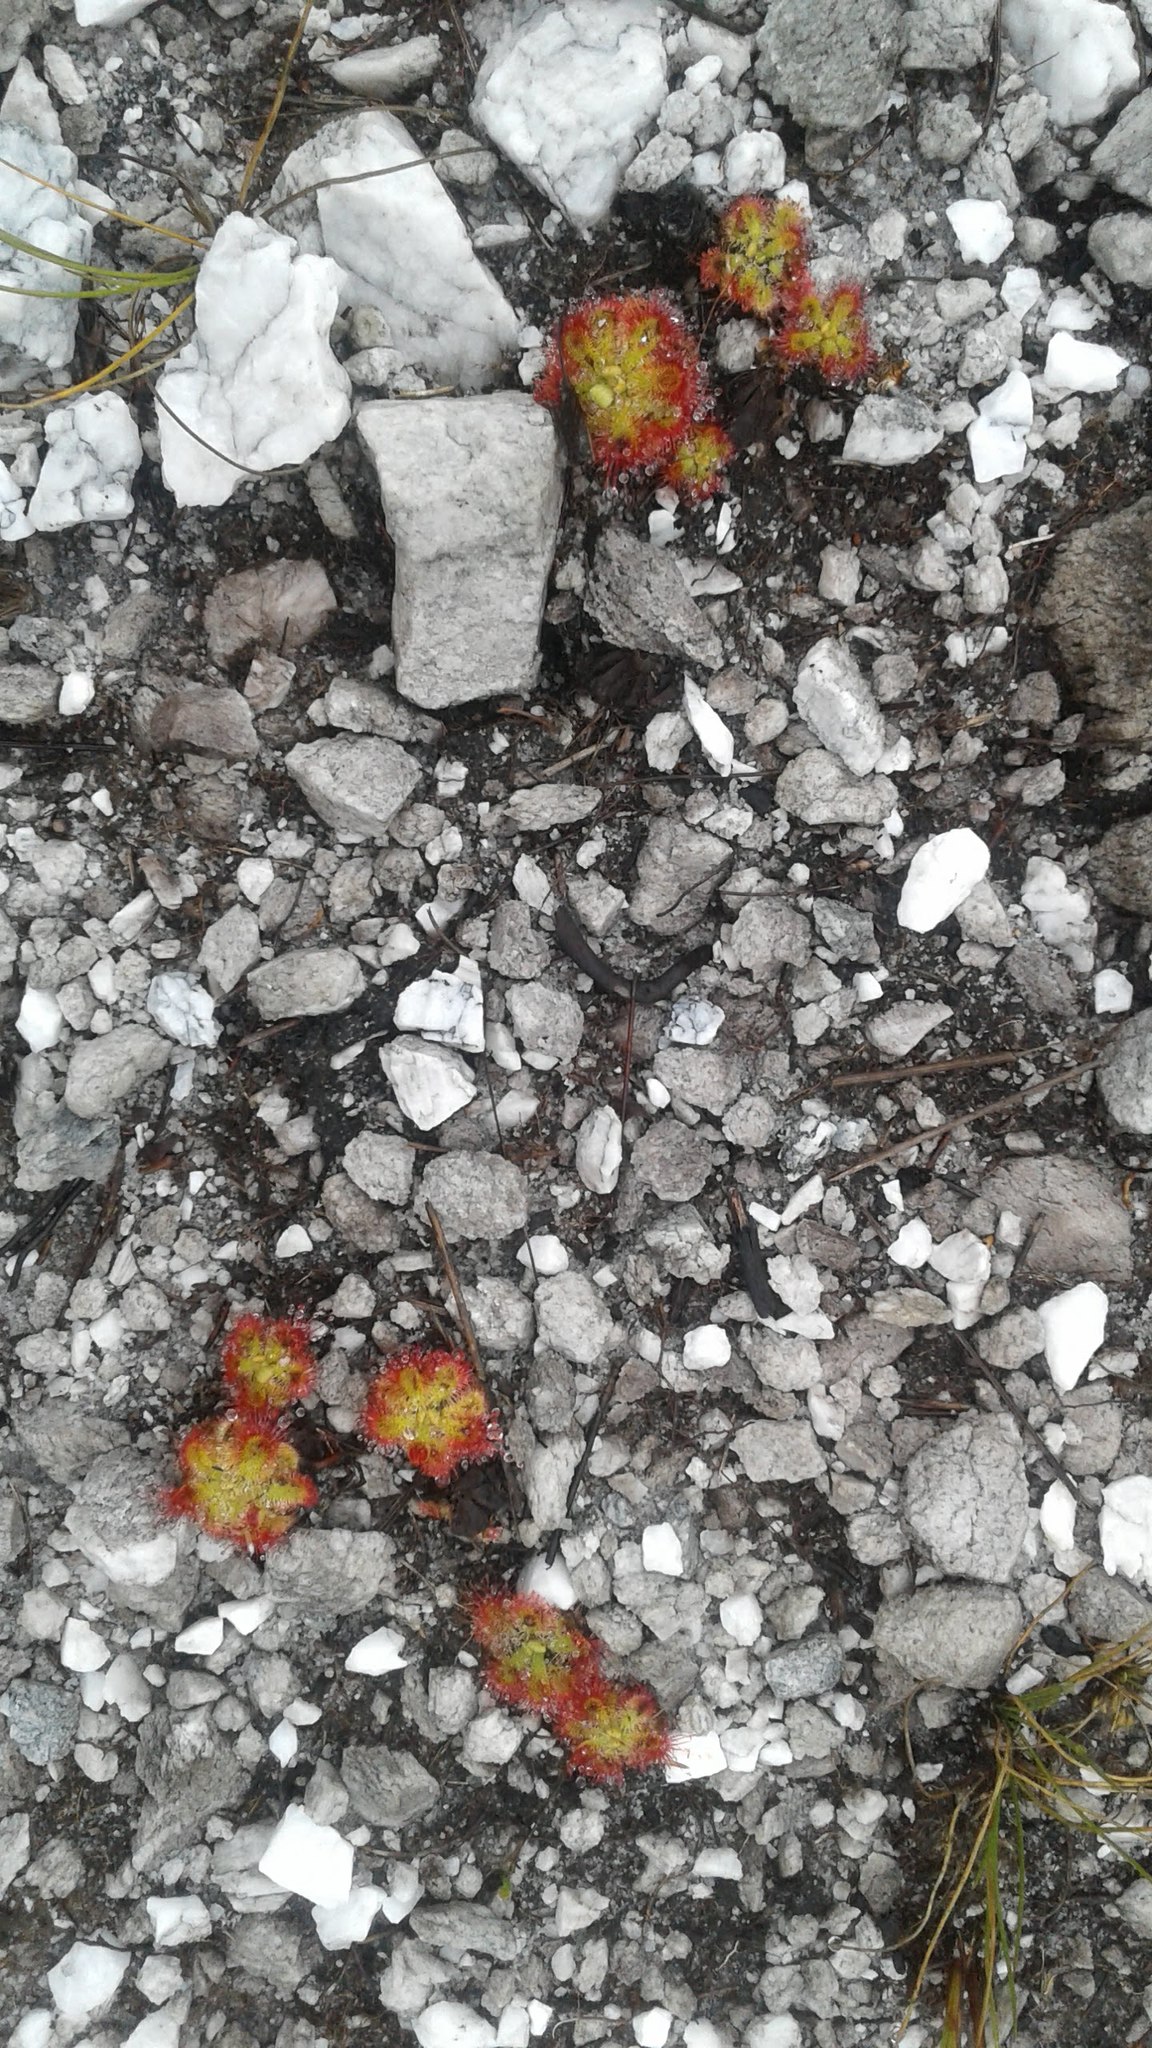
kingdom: Plantae
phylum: Tracheophyta
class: Magnoliopsida
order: Caryophyllales
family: Droseraceae
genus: Drosera
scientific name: Drosera xerophila
